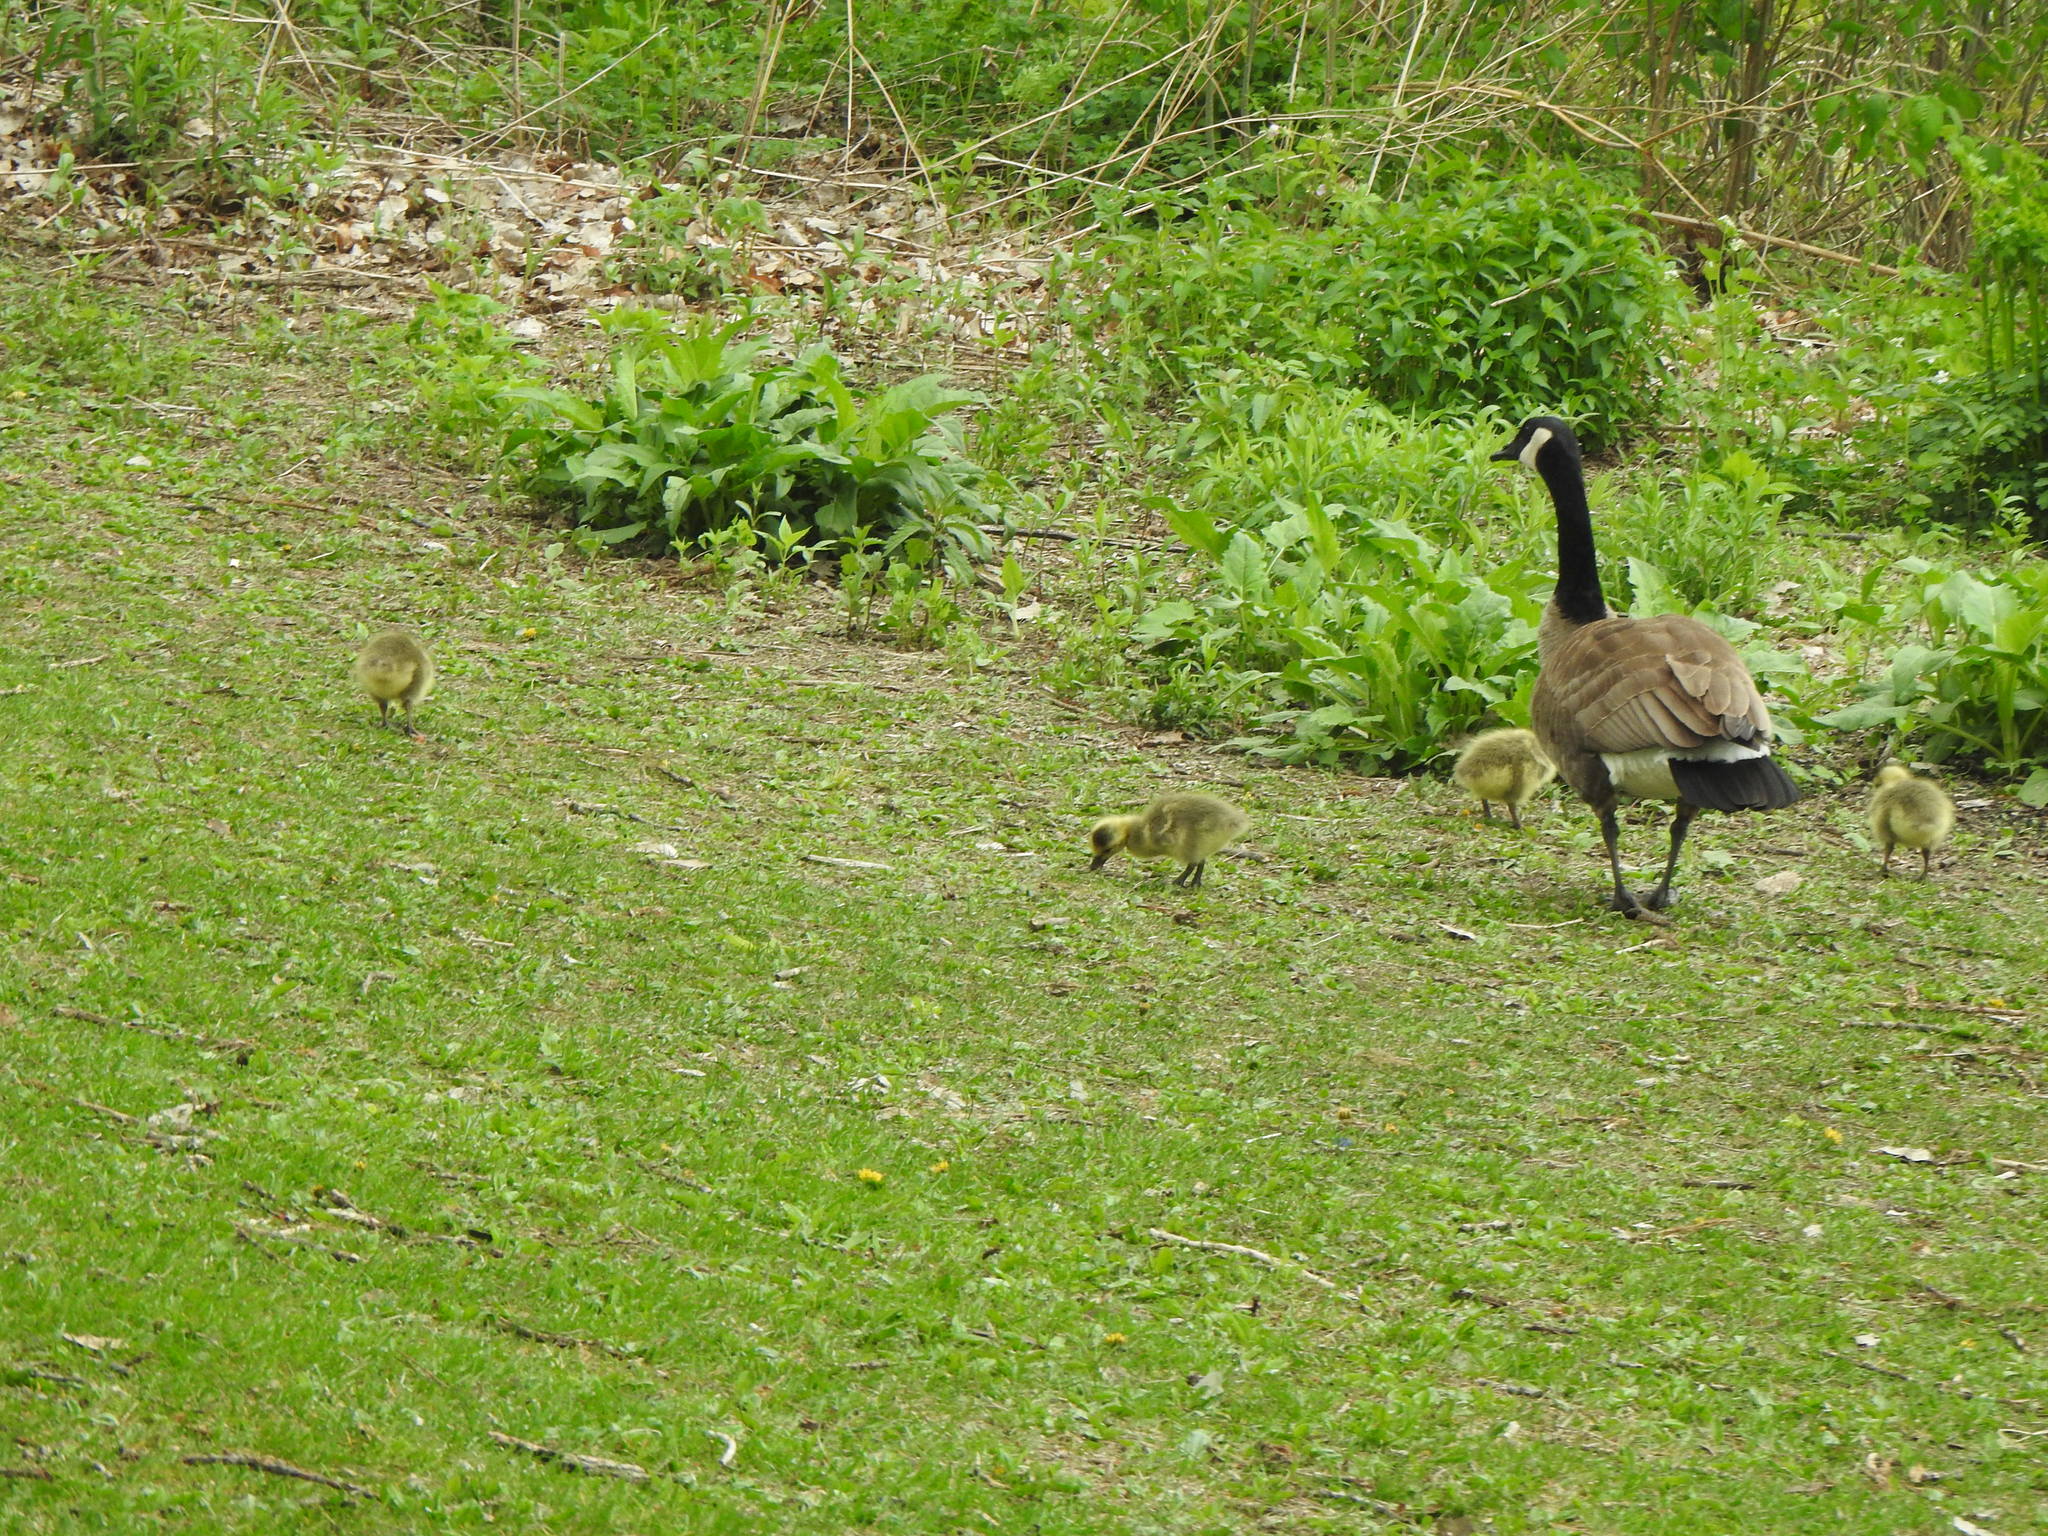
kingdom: Animalia
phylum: Chordata
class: Aves
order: Anseriformes
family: Anatidae
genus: Branta
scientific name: Branta canadensis
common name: Canada goose
